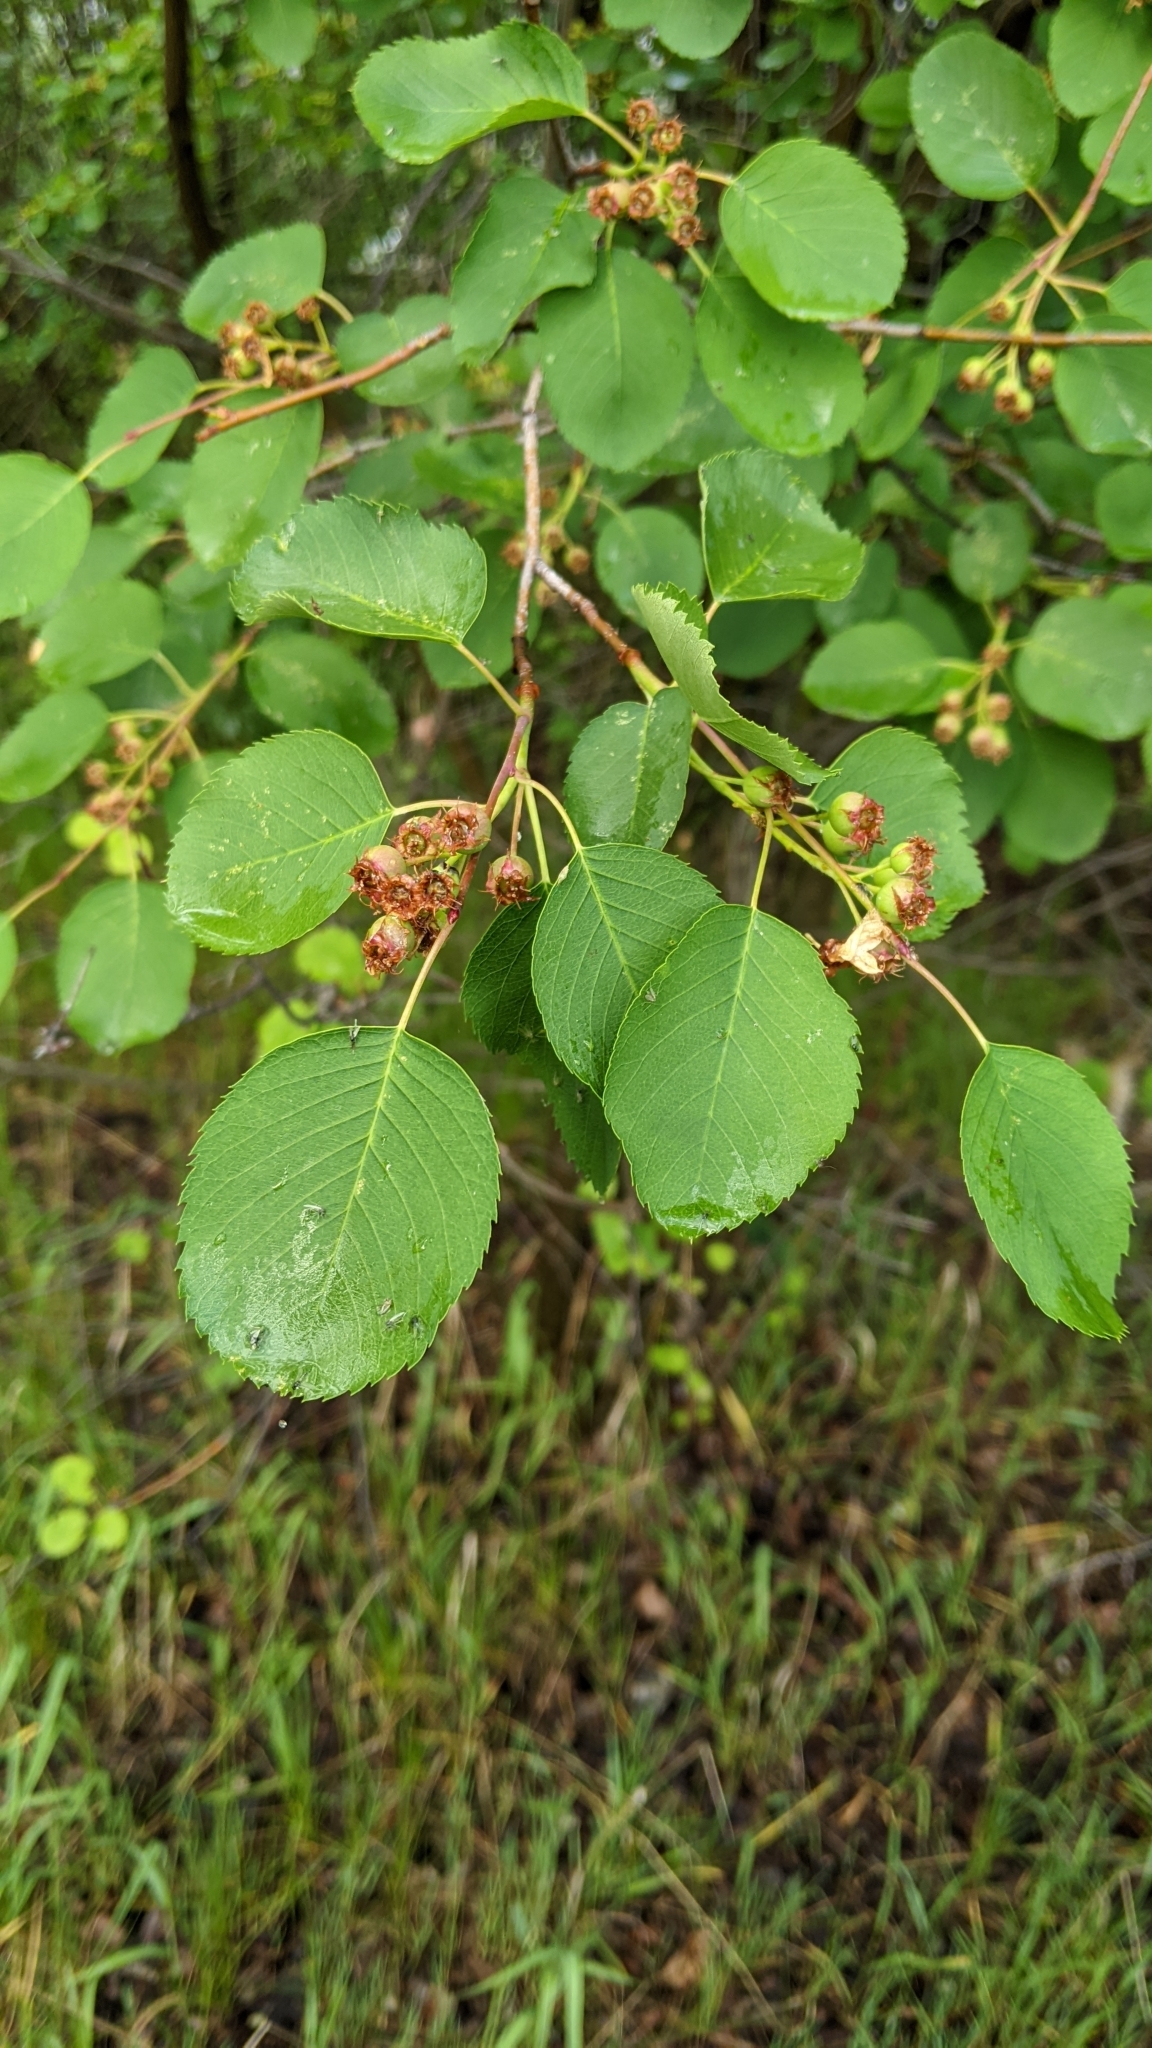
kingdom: Plantae
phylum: Tracheophyta
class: Magnoliopsida
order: Rosales
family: Rosaceae
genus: Amelanchier
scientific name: Amelanchier alnifolia
